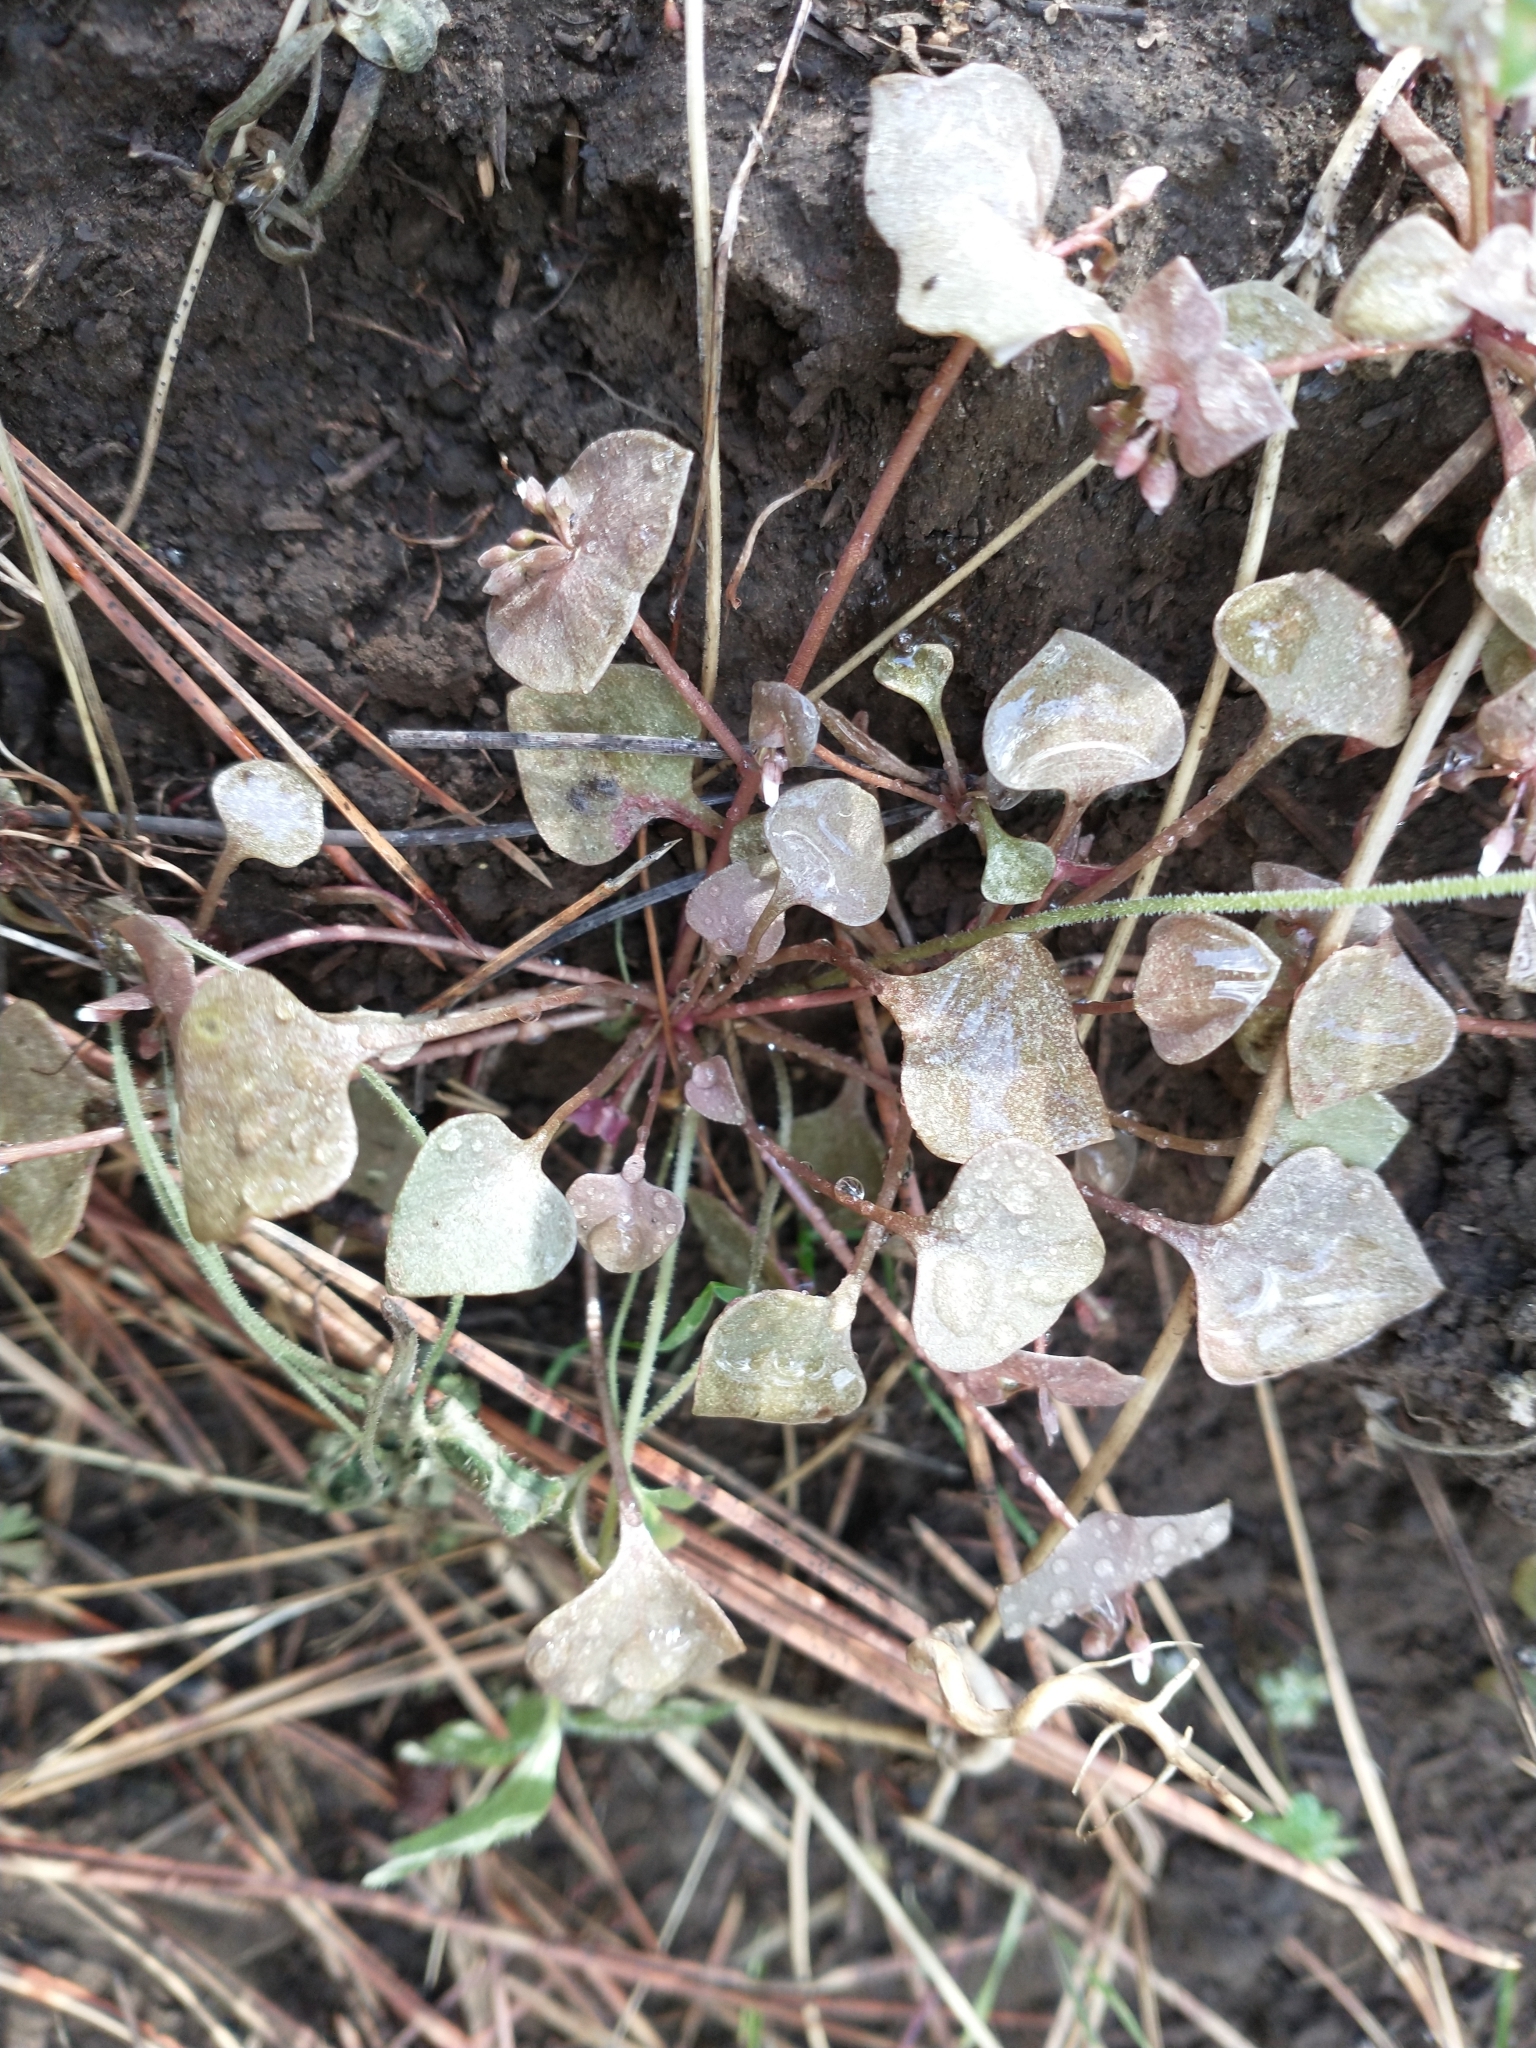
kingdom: Plantae
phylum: Tracheophyta
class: Magnoliopsida
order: Caryophyllales
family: Montiaceae
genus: Claytonia
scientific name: Claytonia rubra
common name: Erubescent miner's-lettuce
